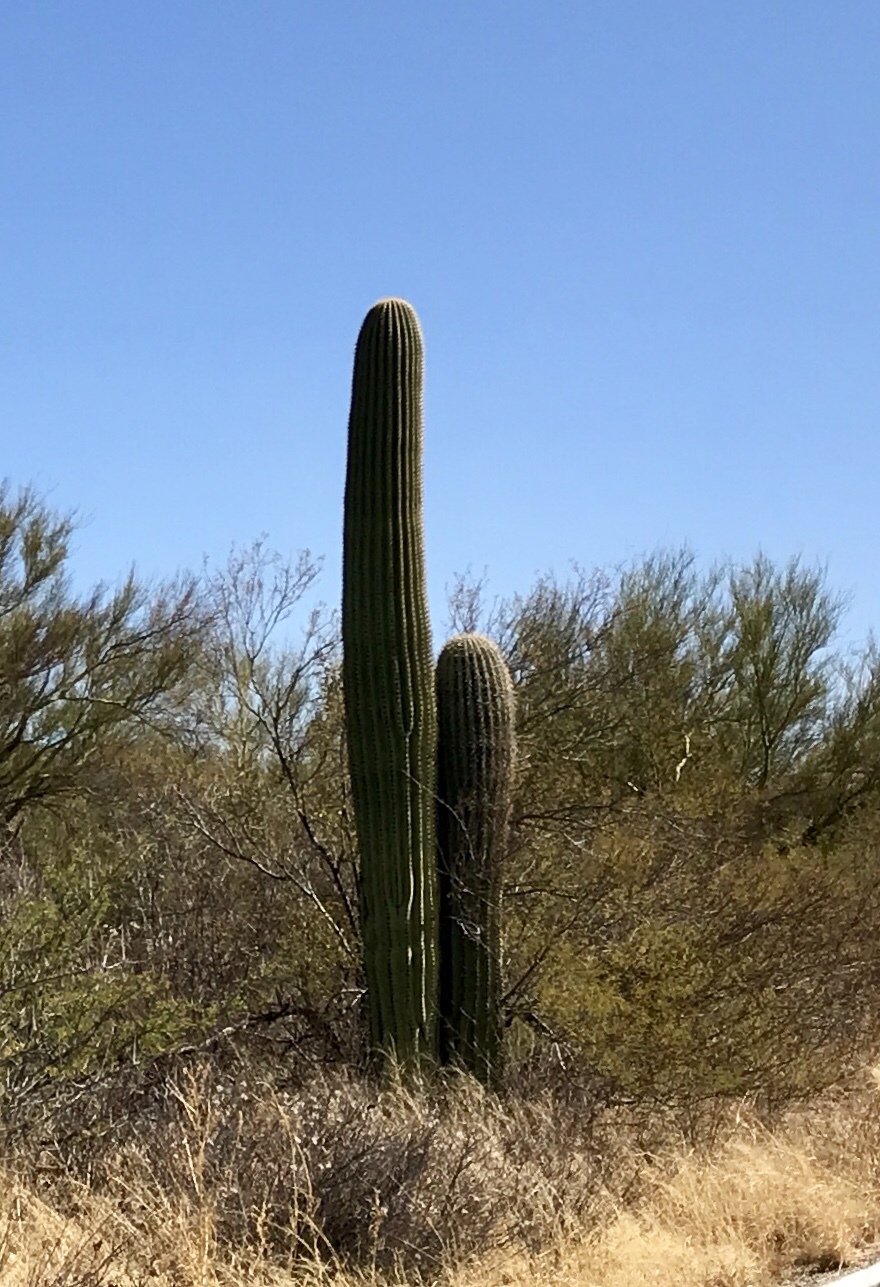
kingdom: Plantae
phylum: Tracheophyta
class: Magnoliopsida
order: Caryophyllales
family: Cactaceae
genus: Carnegiea
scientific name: Carnegiea gigantea
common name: Saguaro
